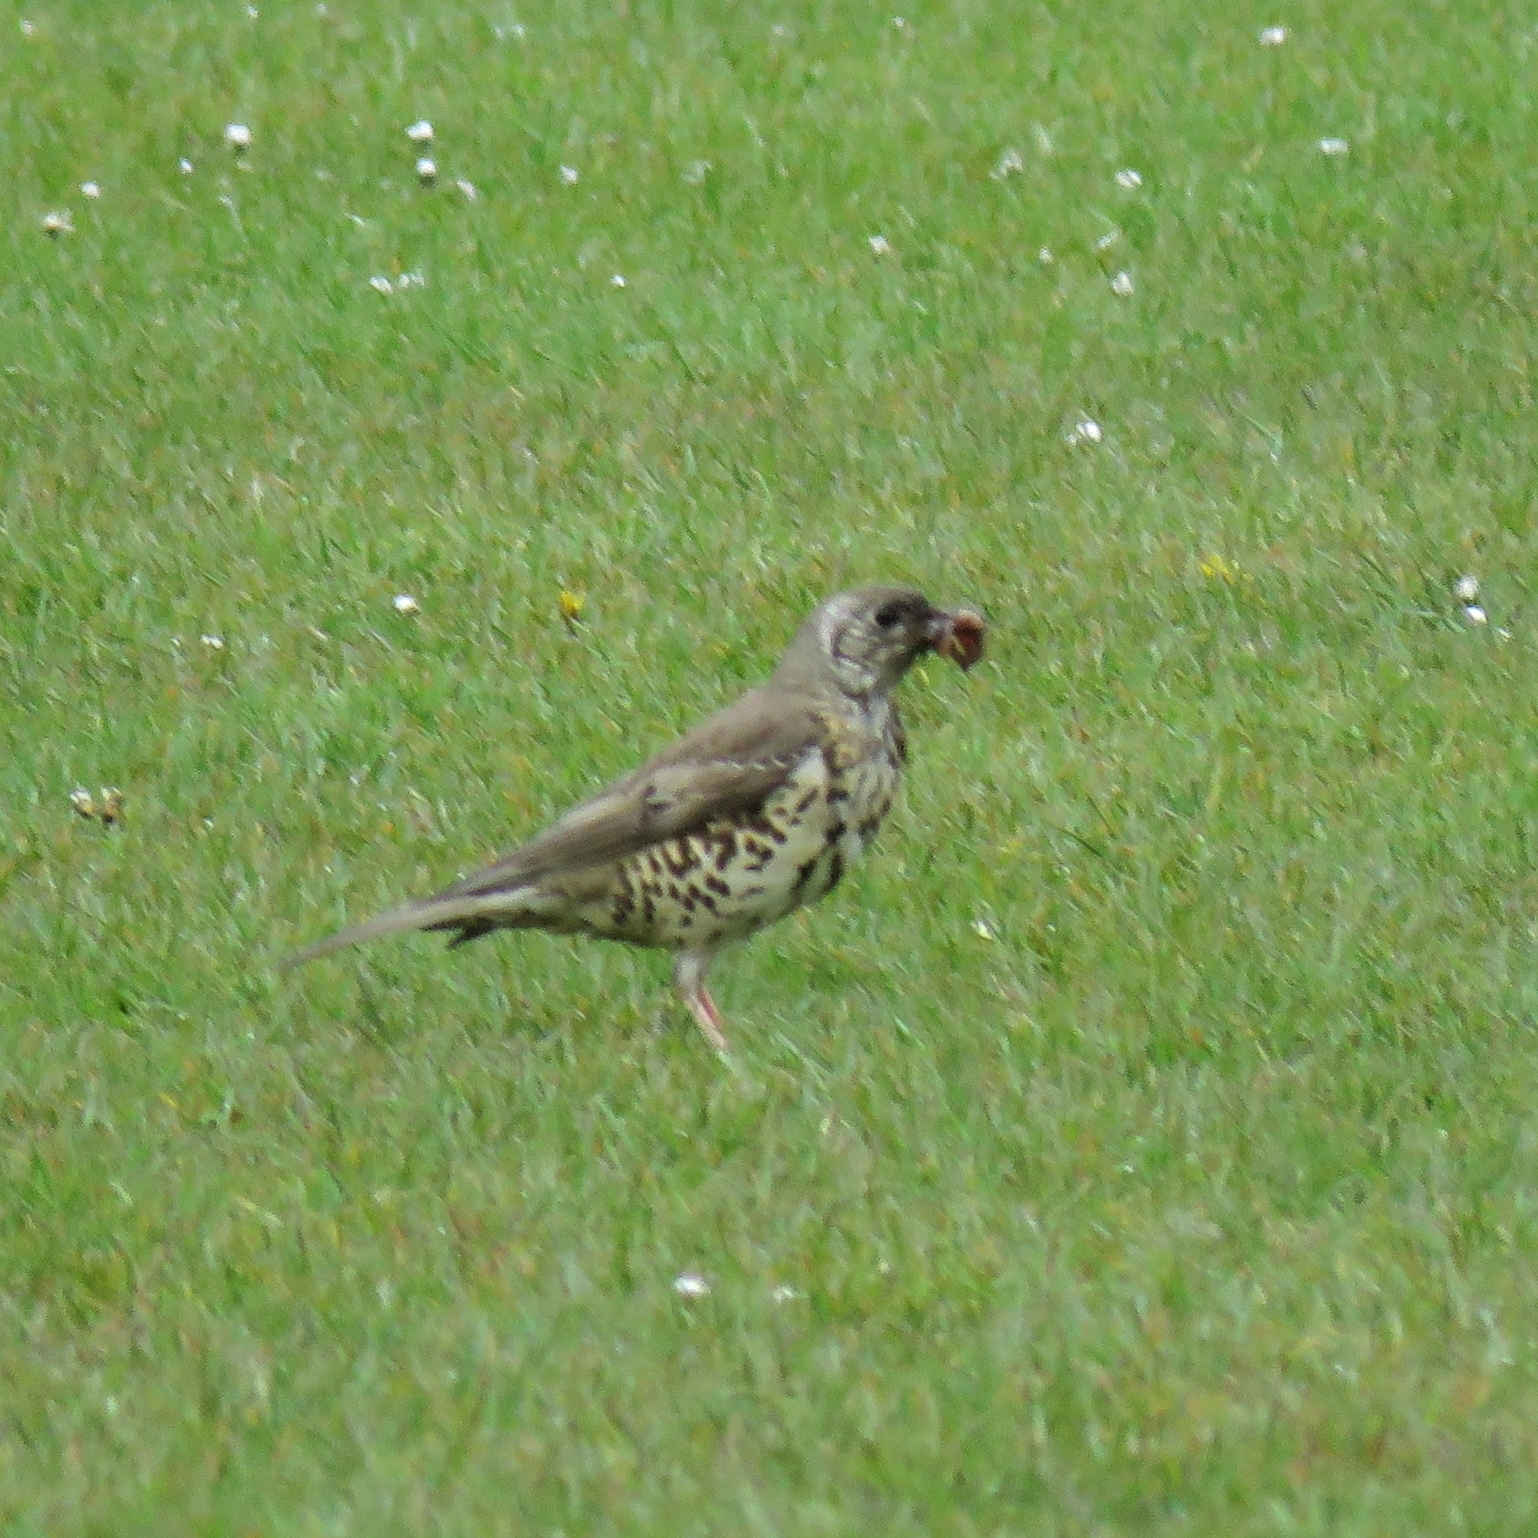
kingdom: Animalia
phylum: Chordata
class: Aves
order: Passeriformes
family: Turdidae
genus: Turdus
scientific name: Turdus viscivorus
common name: Mistle thrush
